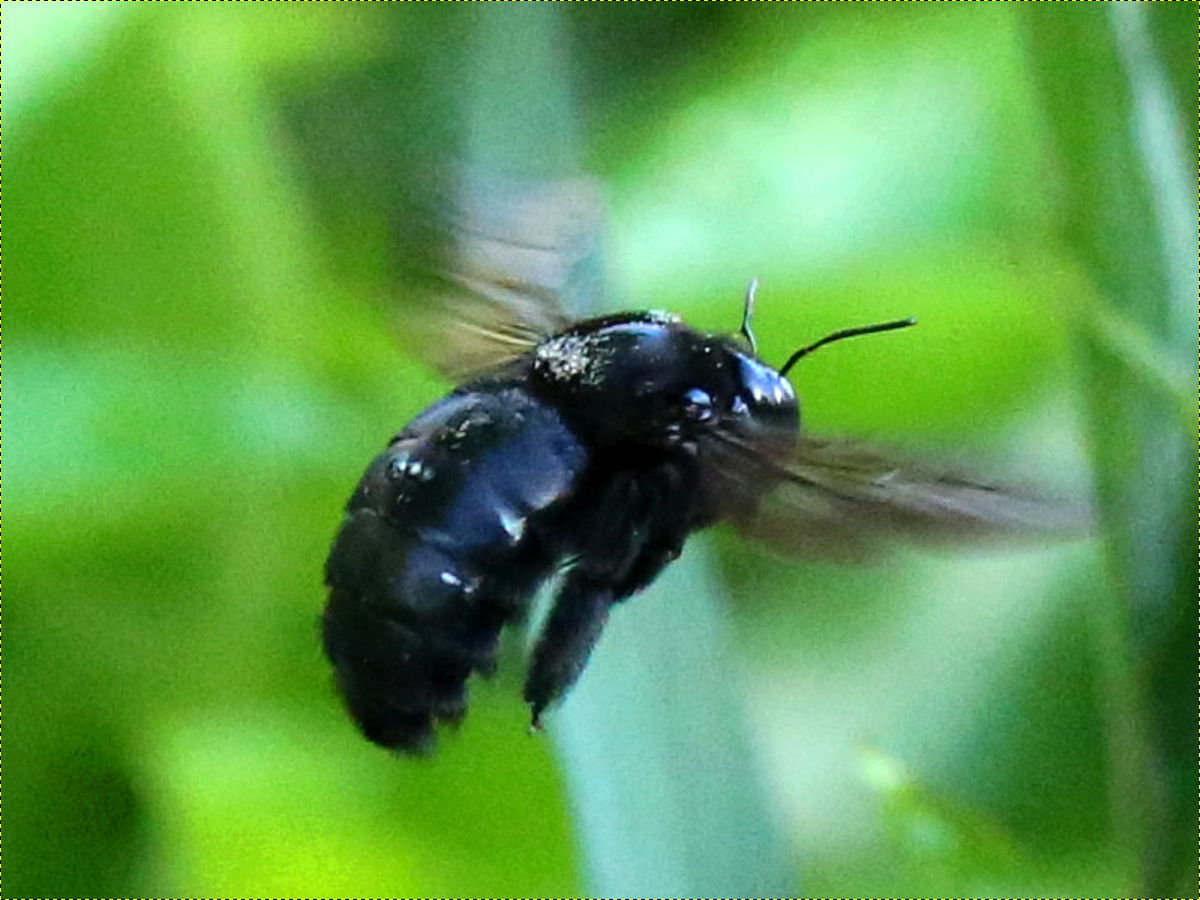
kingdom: Animalia
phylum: Arthropoda
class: Insecta
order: Hymenoptera
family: Apidae
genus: Xylocopa
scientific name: Xylocopa sonorina
